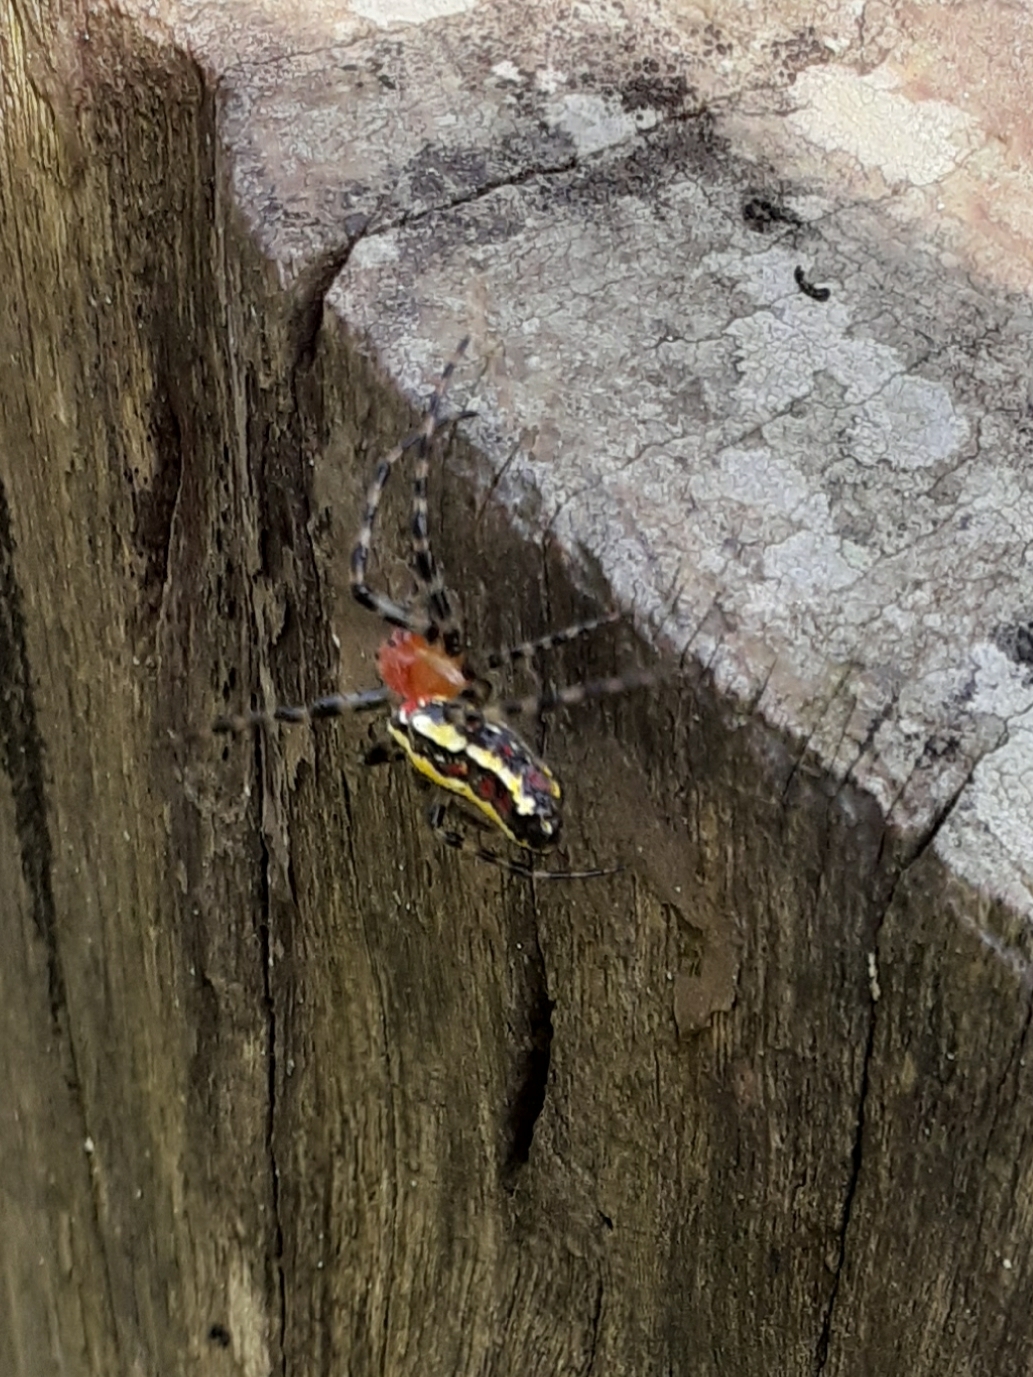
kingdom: Animalia
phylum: Arthropoda
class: Arachnida
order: Araneae
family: Araneidae
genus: Alpaida
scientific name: Alpaida grayi
